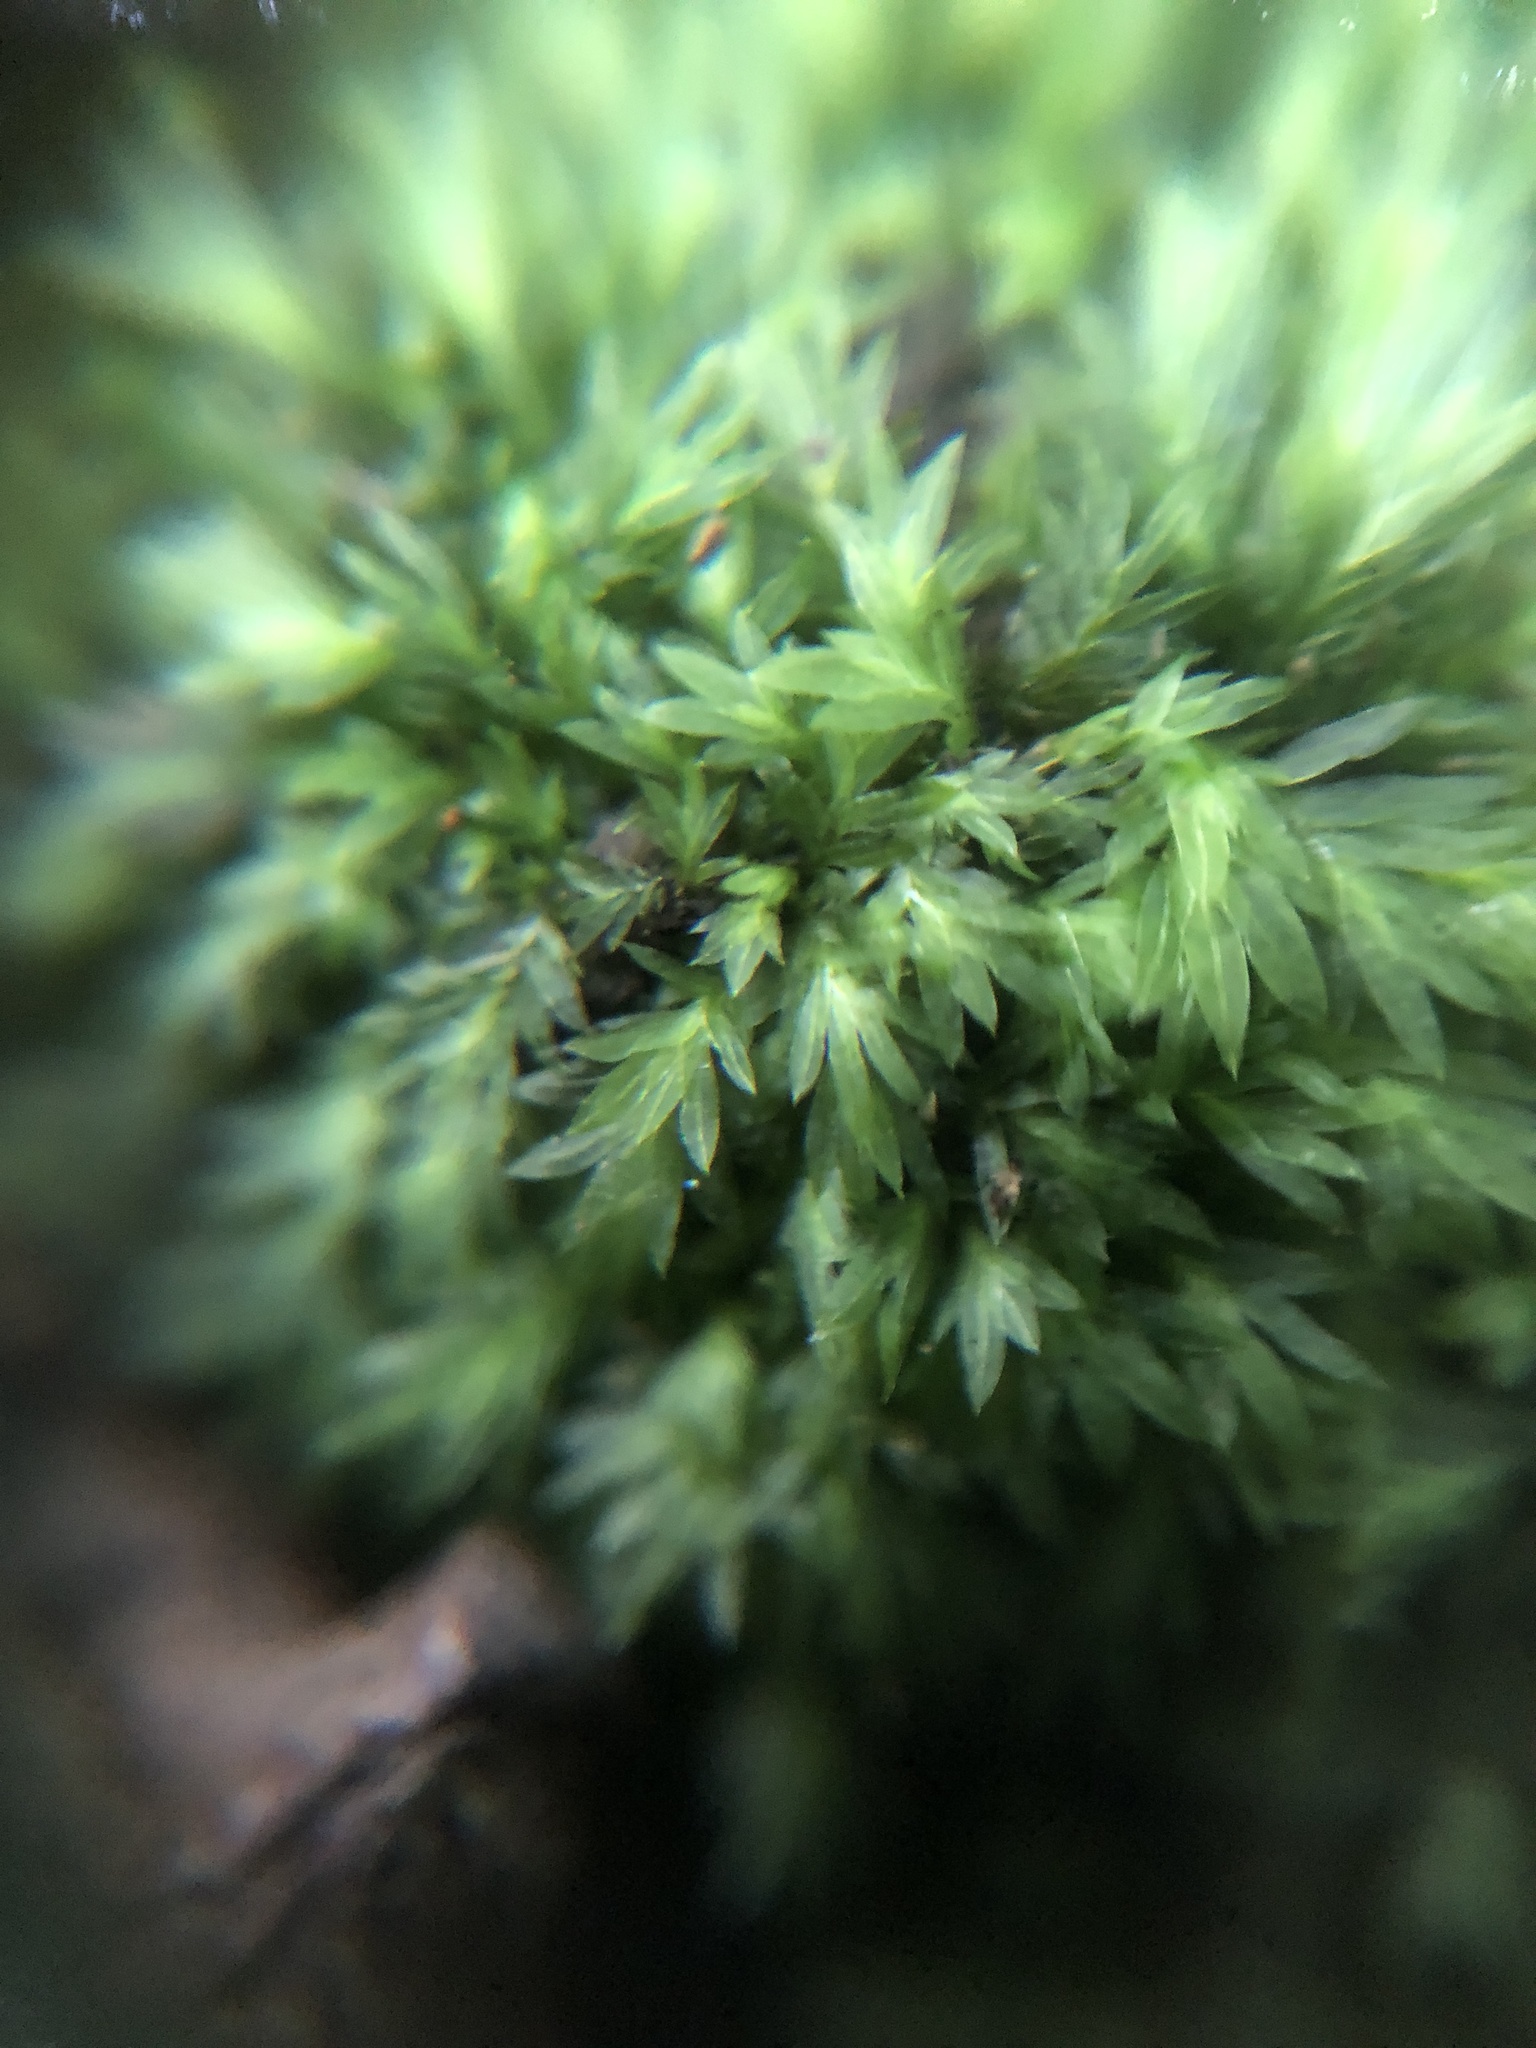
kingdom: Plantae
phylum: Bryophyta
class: Bryopsida
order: Dicranales
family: Fissidentaceae
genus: Fissidens
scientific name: Fissidens taxifolius
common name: Yew-leaved pocket moss
